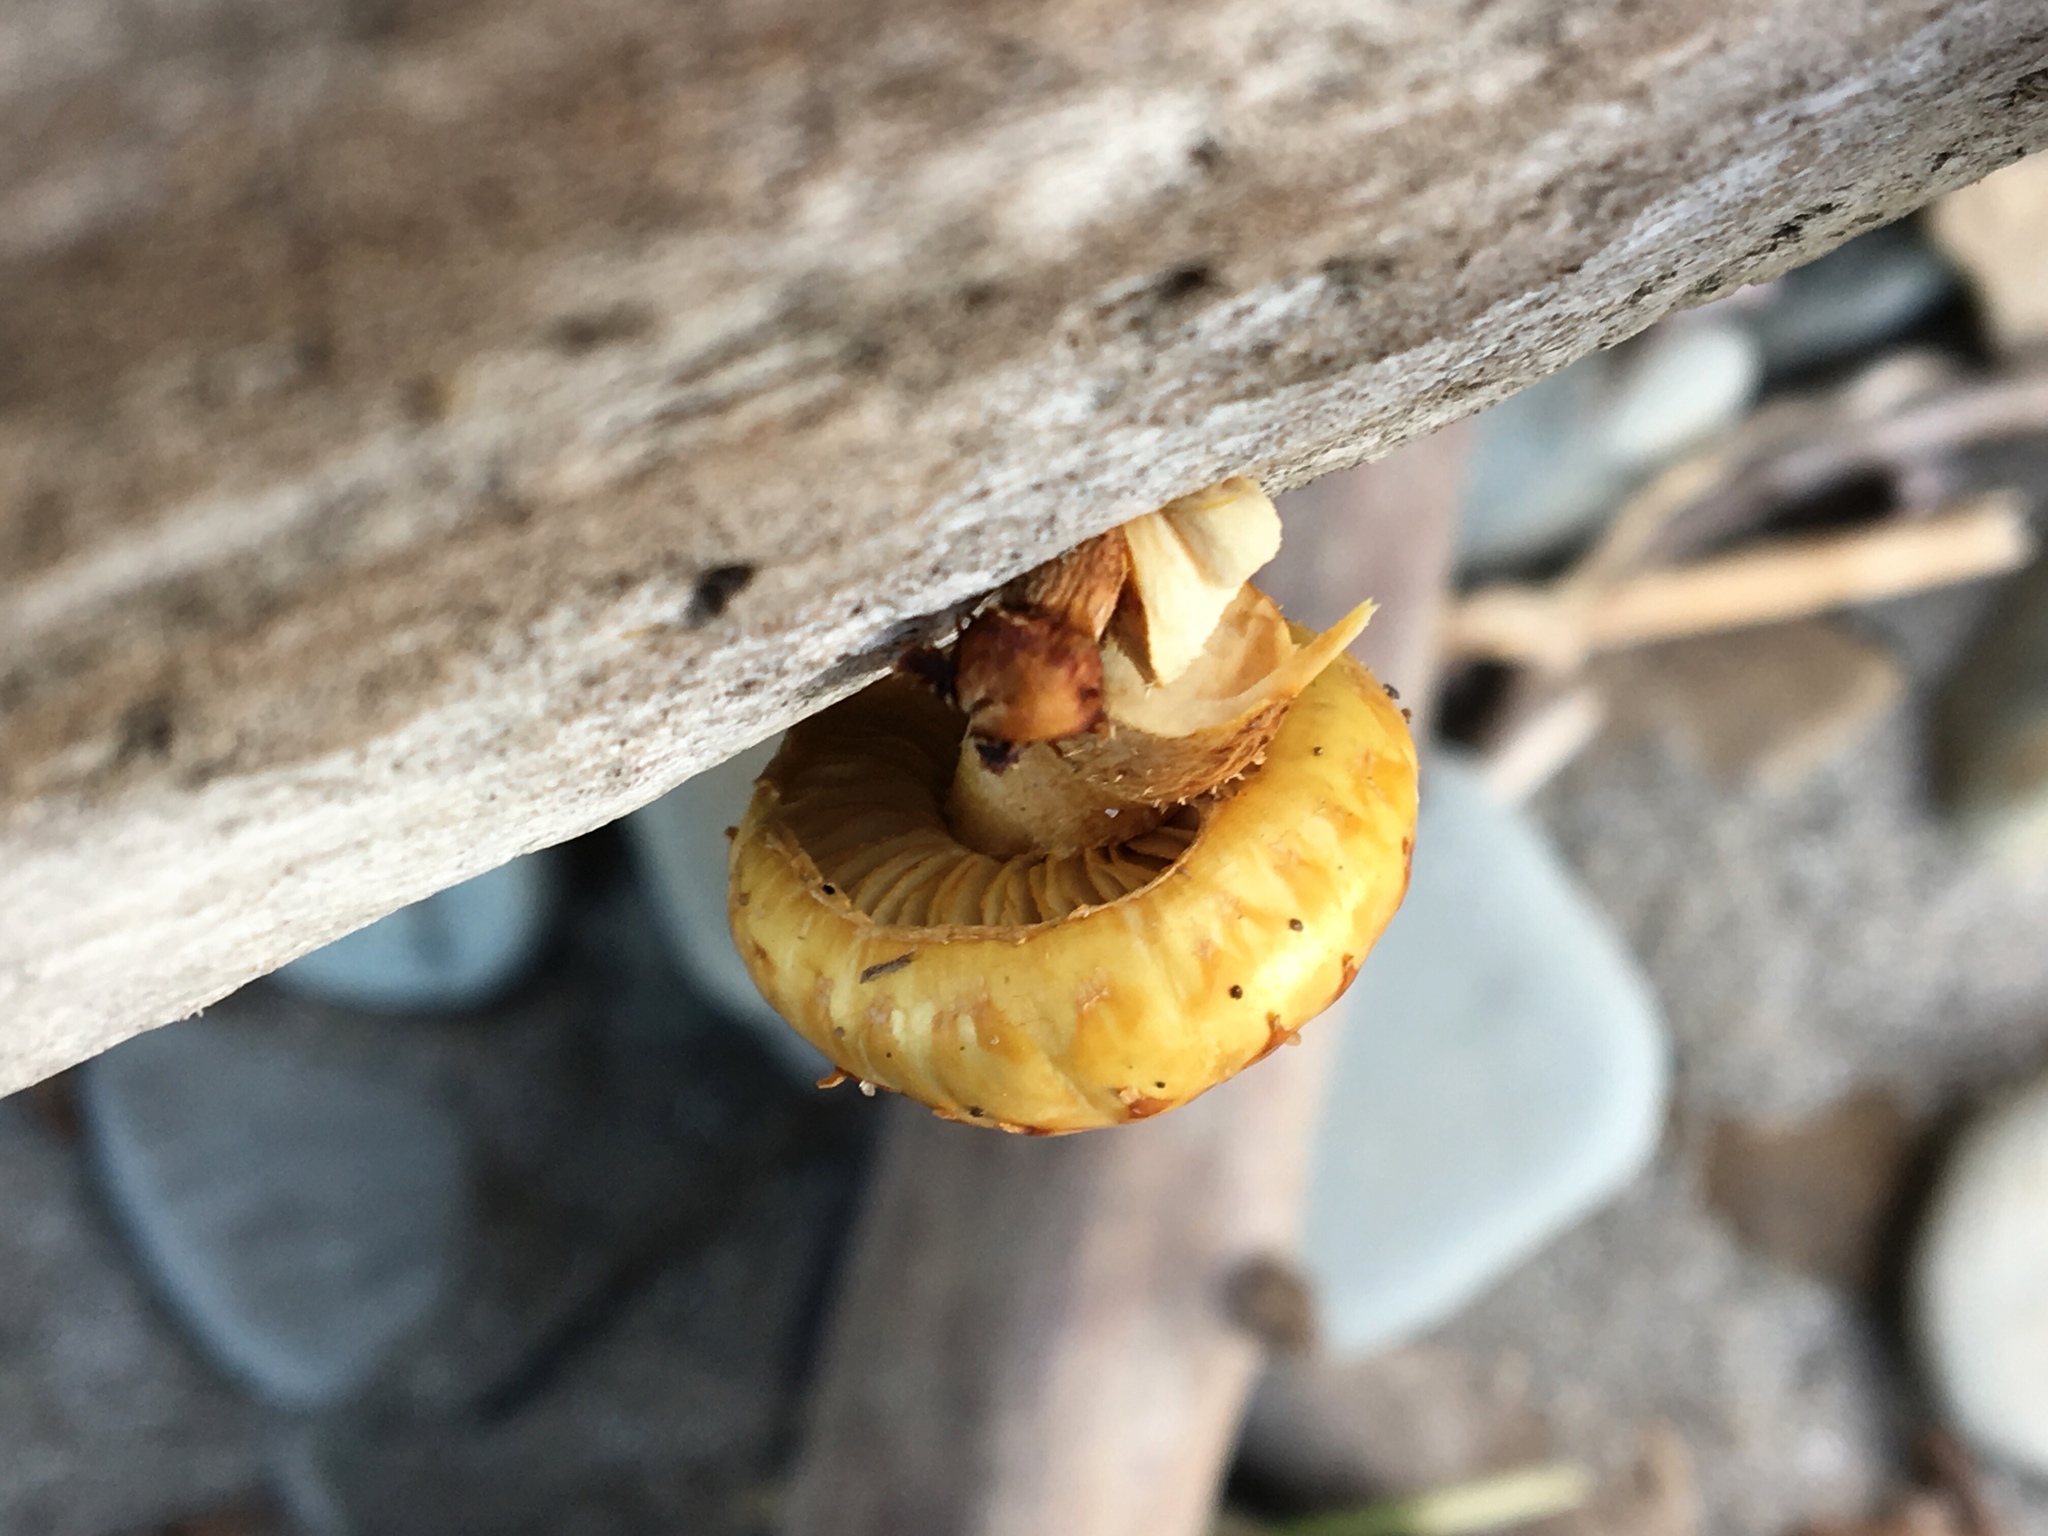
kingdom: Fungi
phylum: Basidiomycota
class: Agaricomycetes
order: Agaricales
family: Strophariaceae
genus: Pholiota
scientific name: Pholiota aurivella
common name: Golden scalycap
